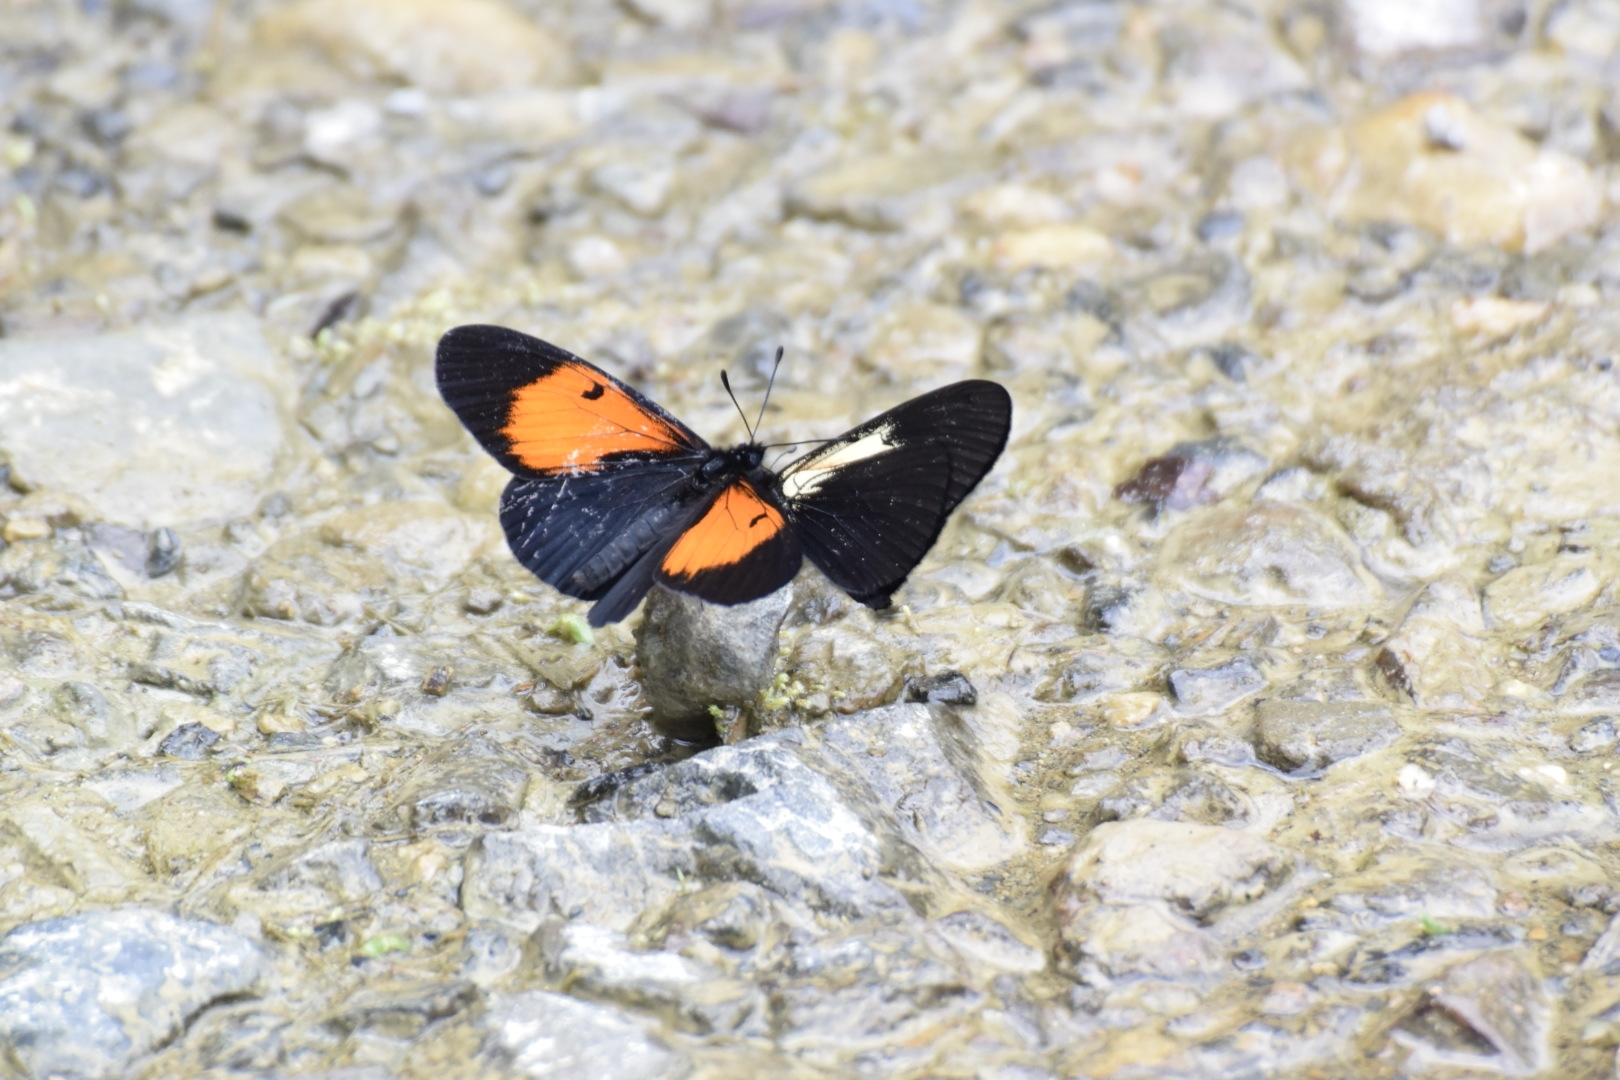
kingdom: Animalia
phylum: Arthropoda
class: Insecta
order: Lepidoptera
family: Nymphalidae
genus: Actinote
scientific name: Actinote stratonice
